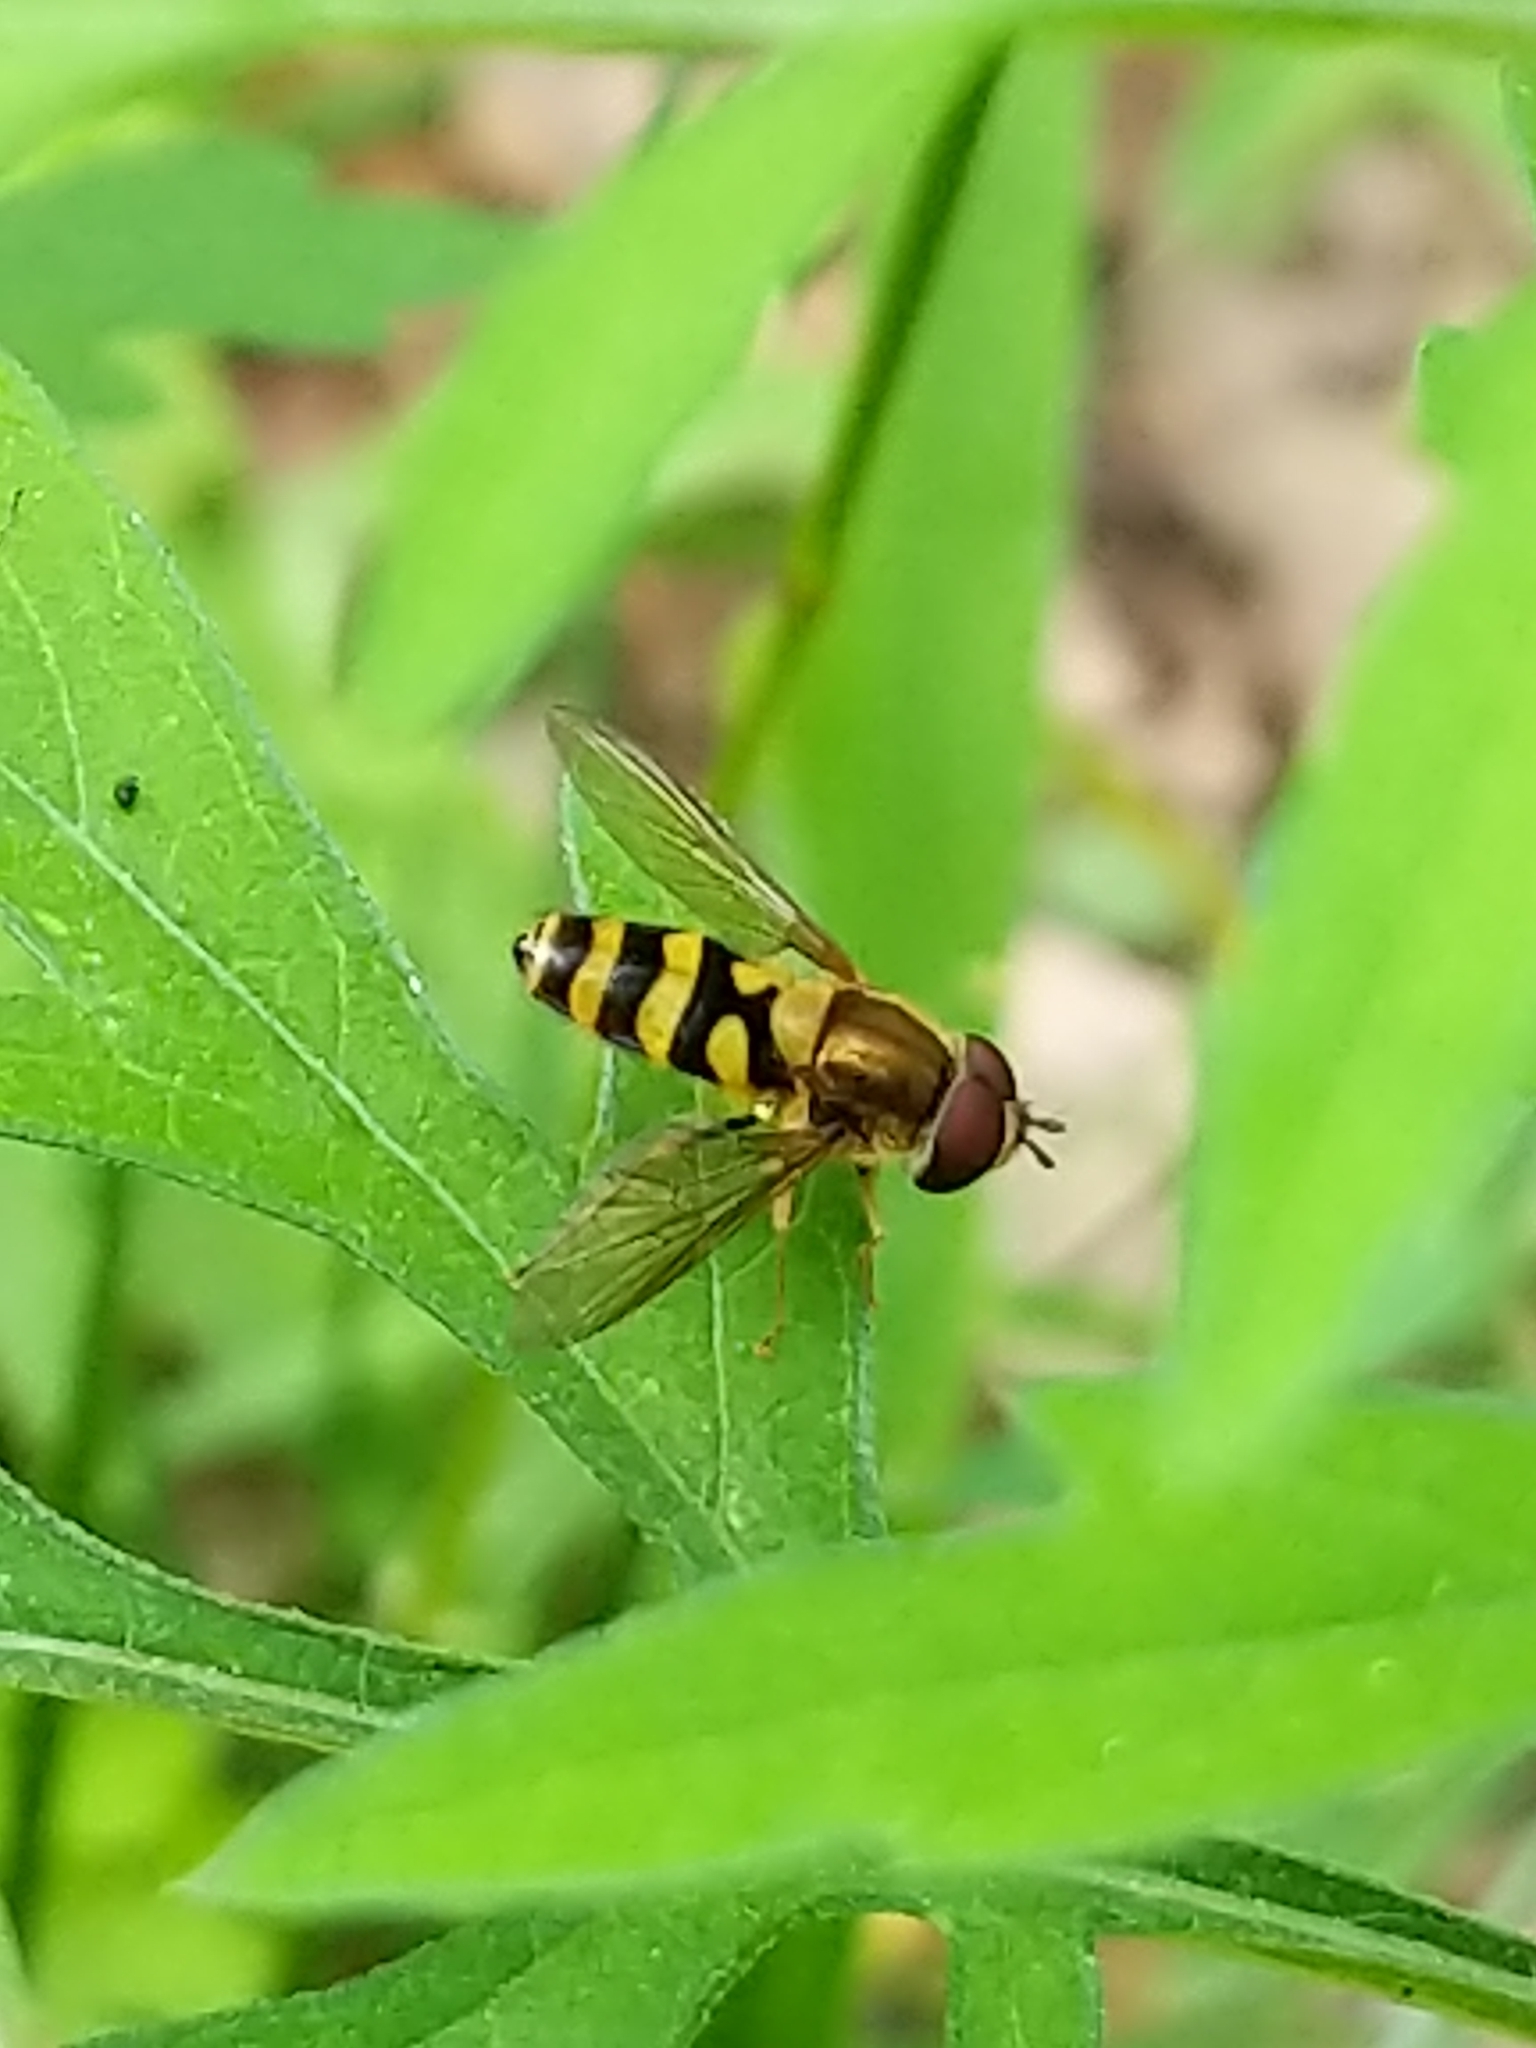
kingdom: Animalia
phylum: Arthropoda
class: Insecta
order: Diptera
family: Syrphidae
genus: Syrphus
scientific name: Syrphus
